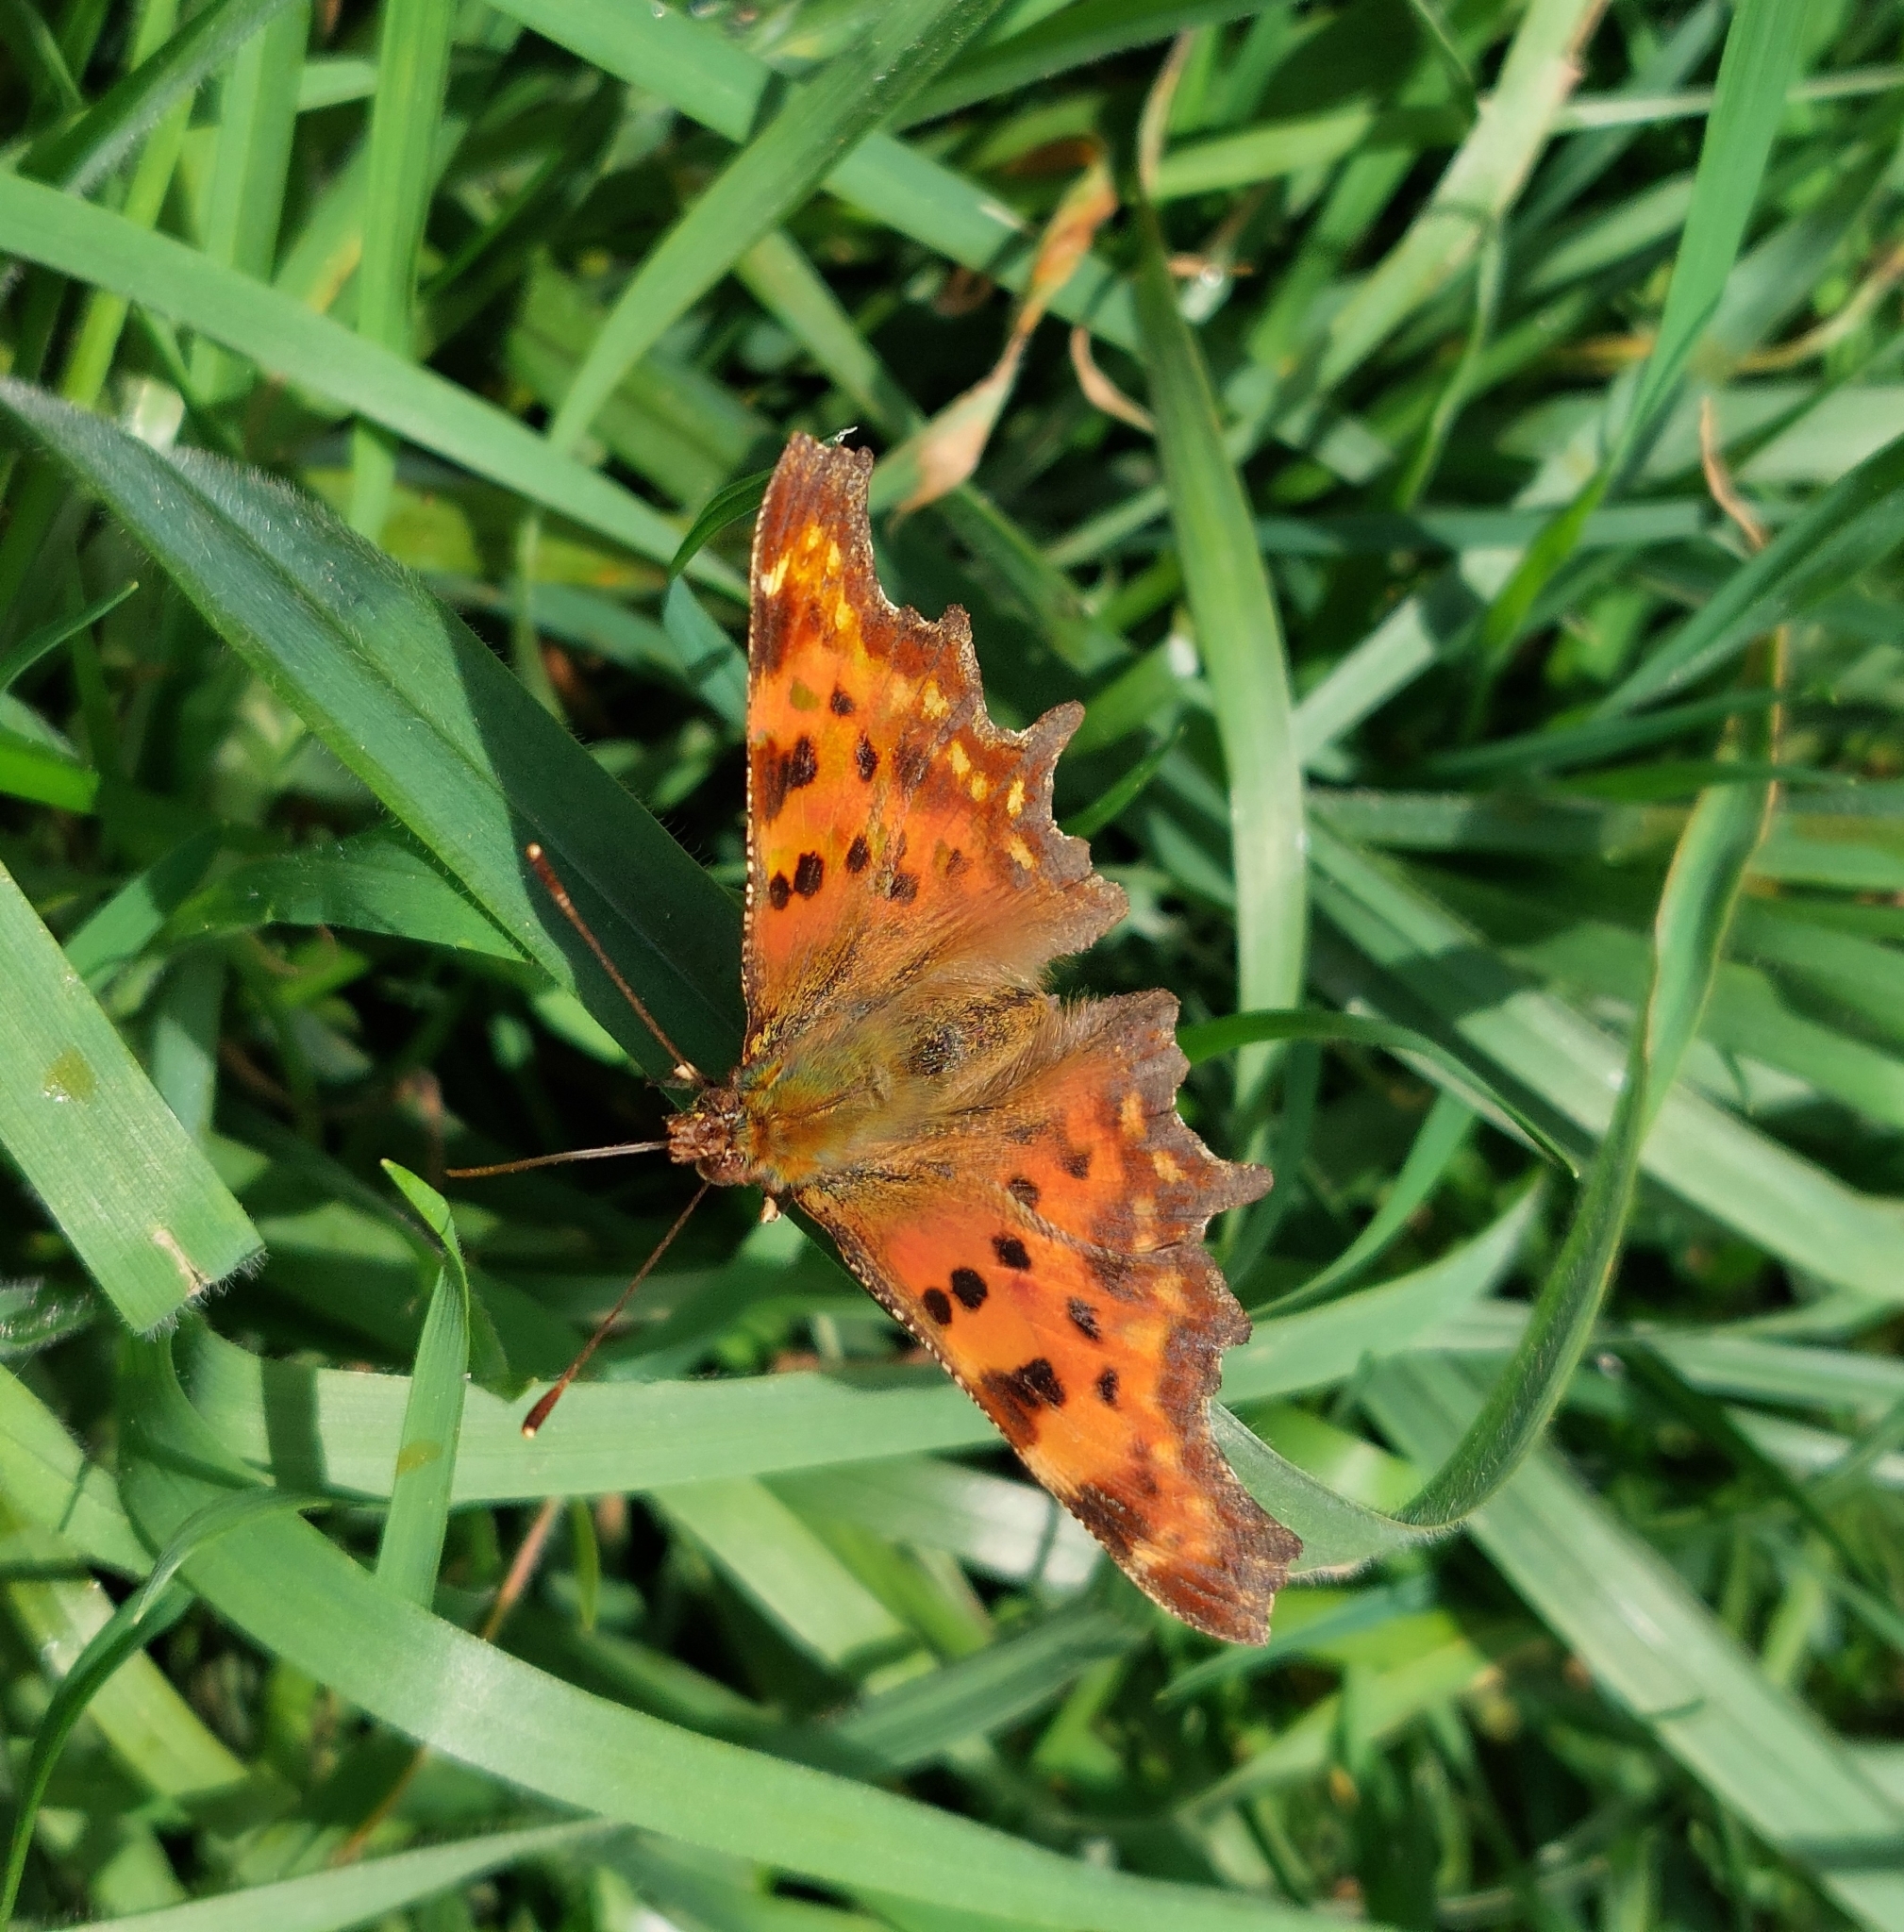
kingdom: Animalia
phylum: Arthropoda
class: Insecta
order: Lepidoptera
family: Nymphalidae
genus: Polygonia
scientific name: Polygonia c-album
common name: Comma
